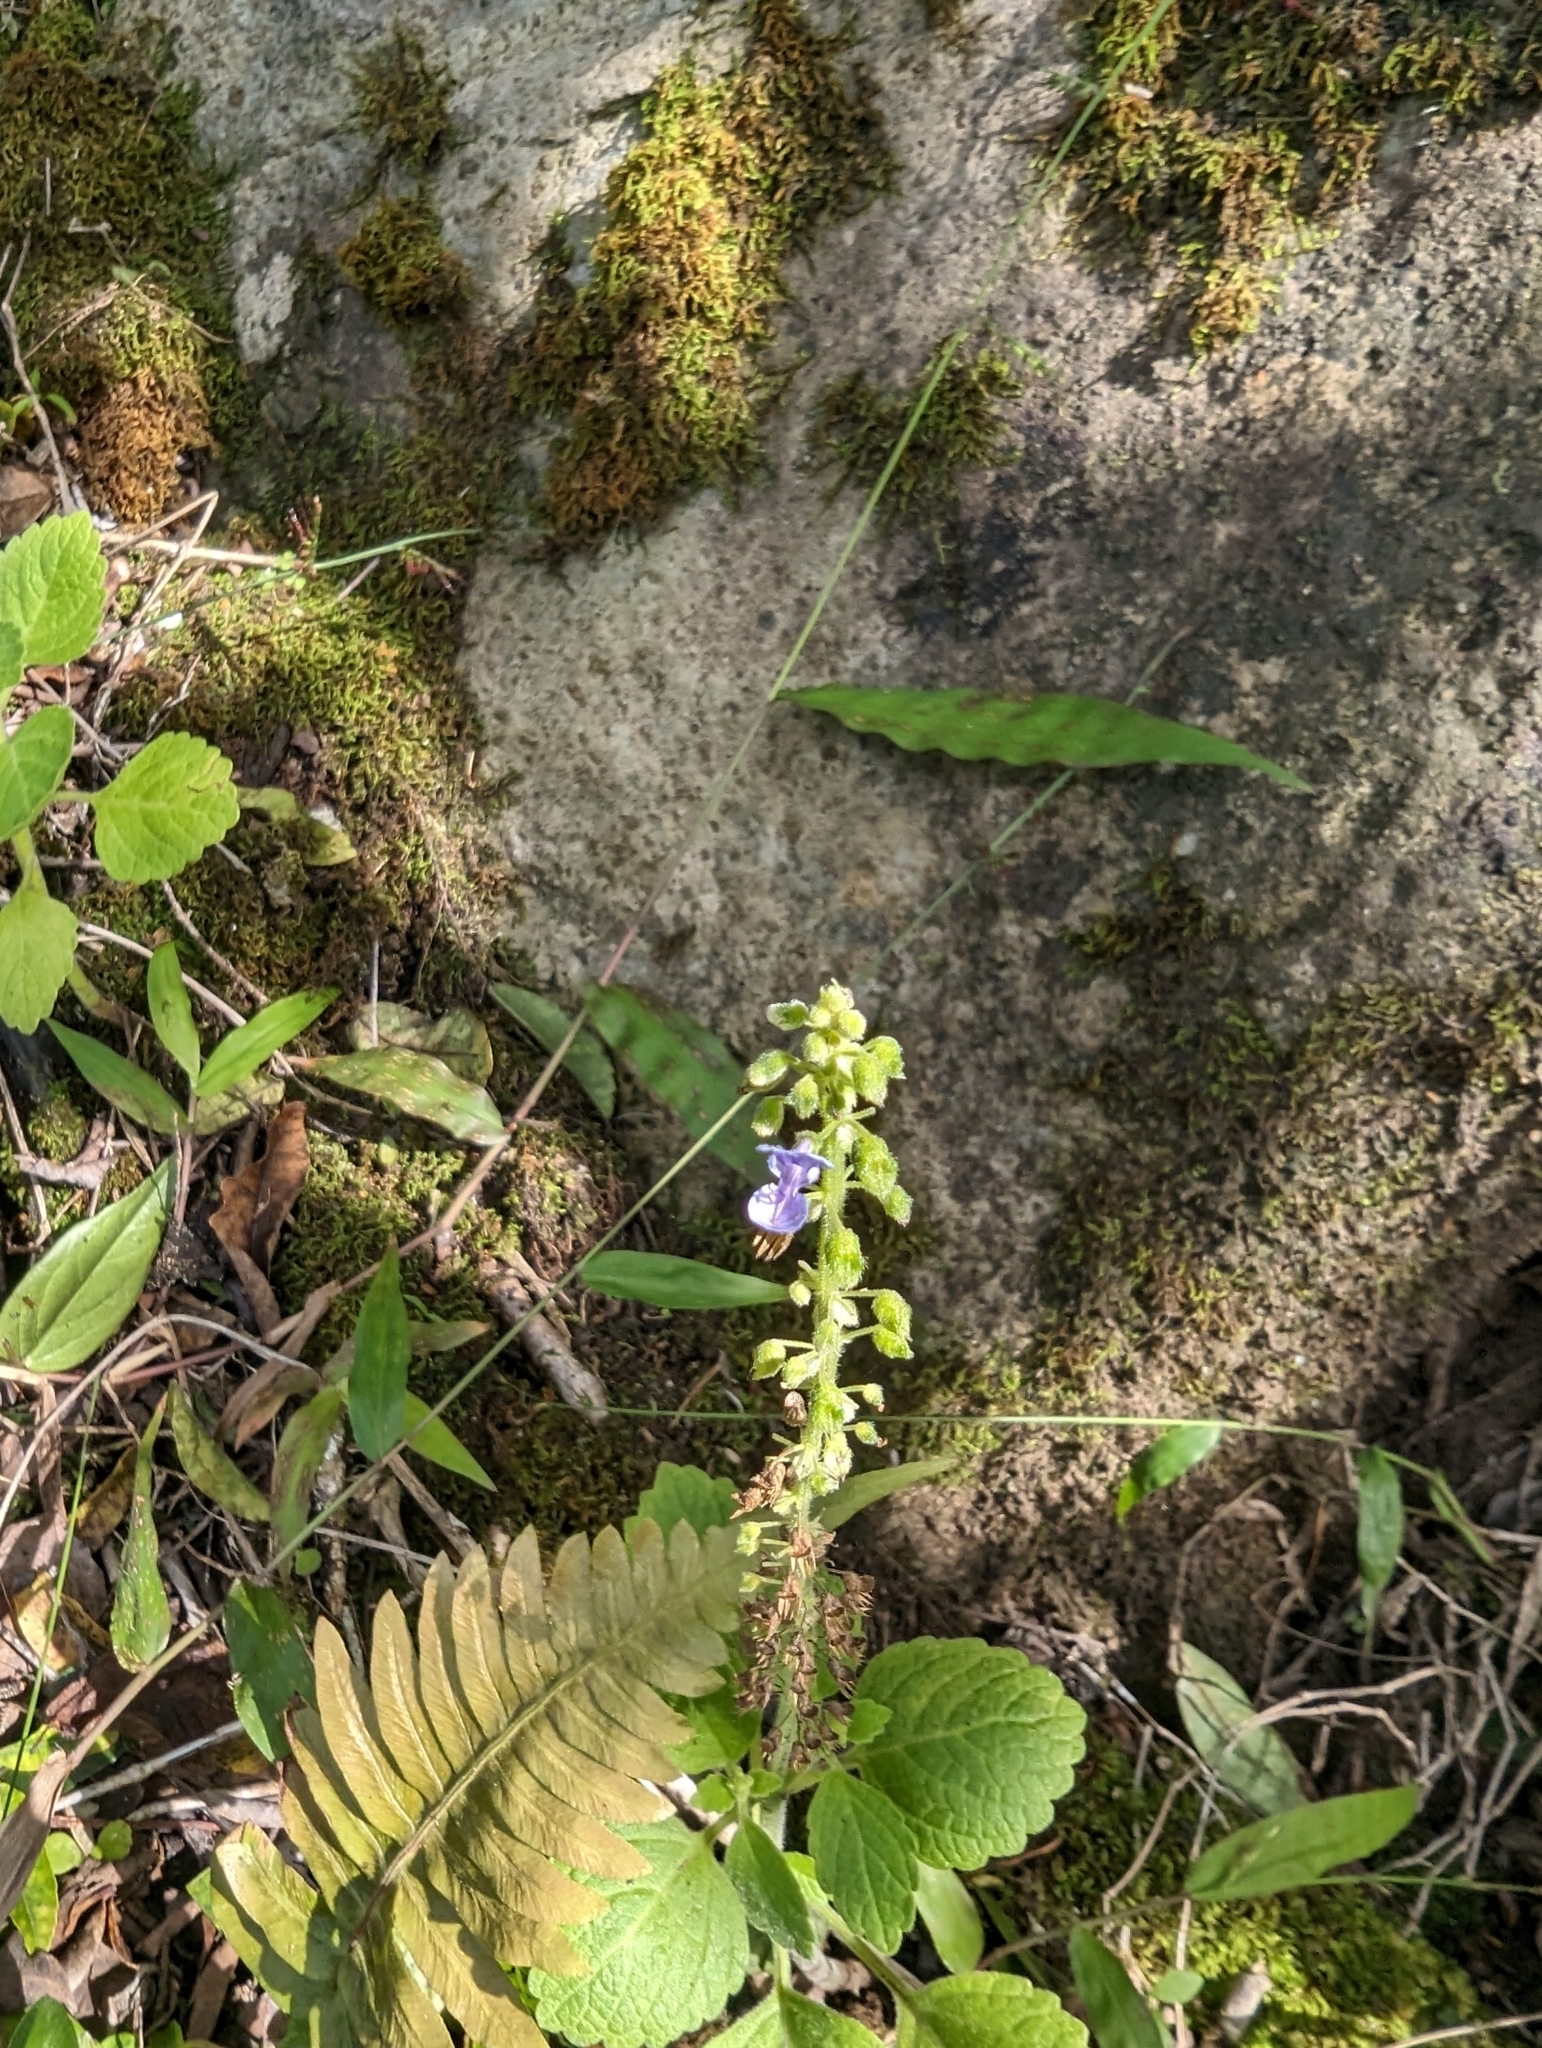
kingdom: Plantae
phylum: Tracheophyta
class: Magnoliopsida
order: Lamiales
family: Lamiaceae
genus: Coleus
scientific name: Coleus australis
